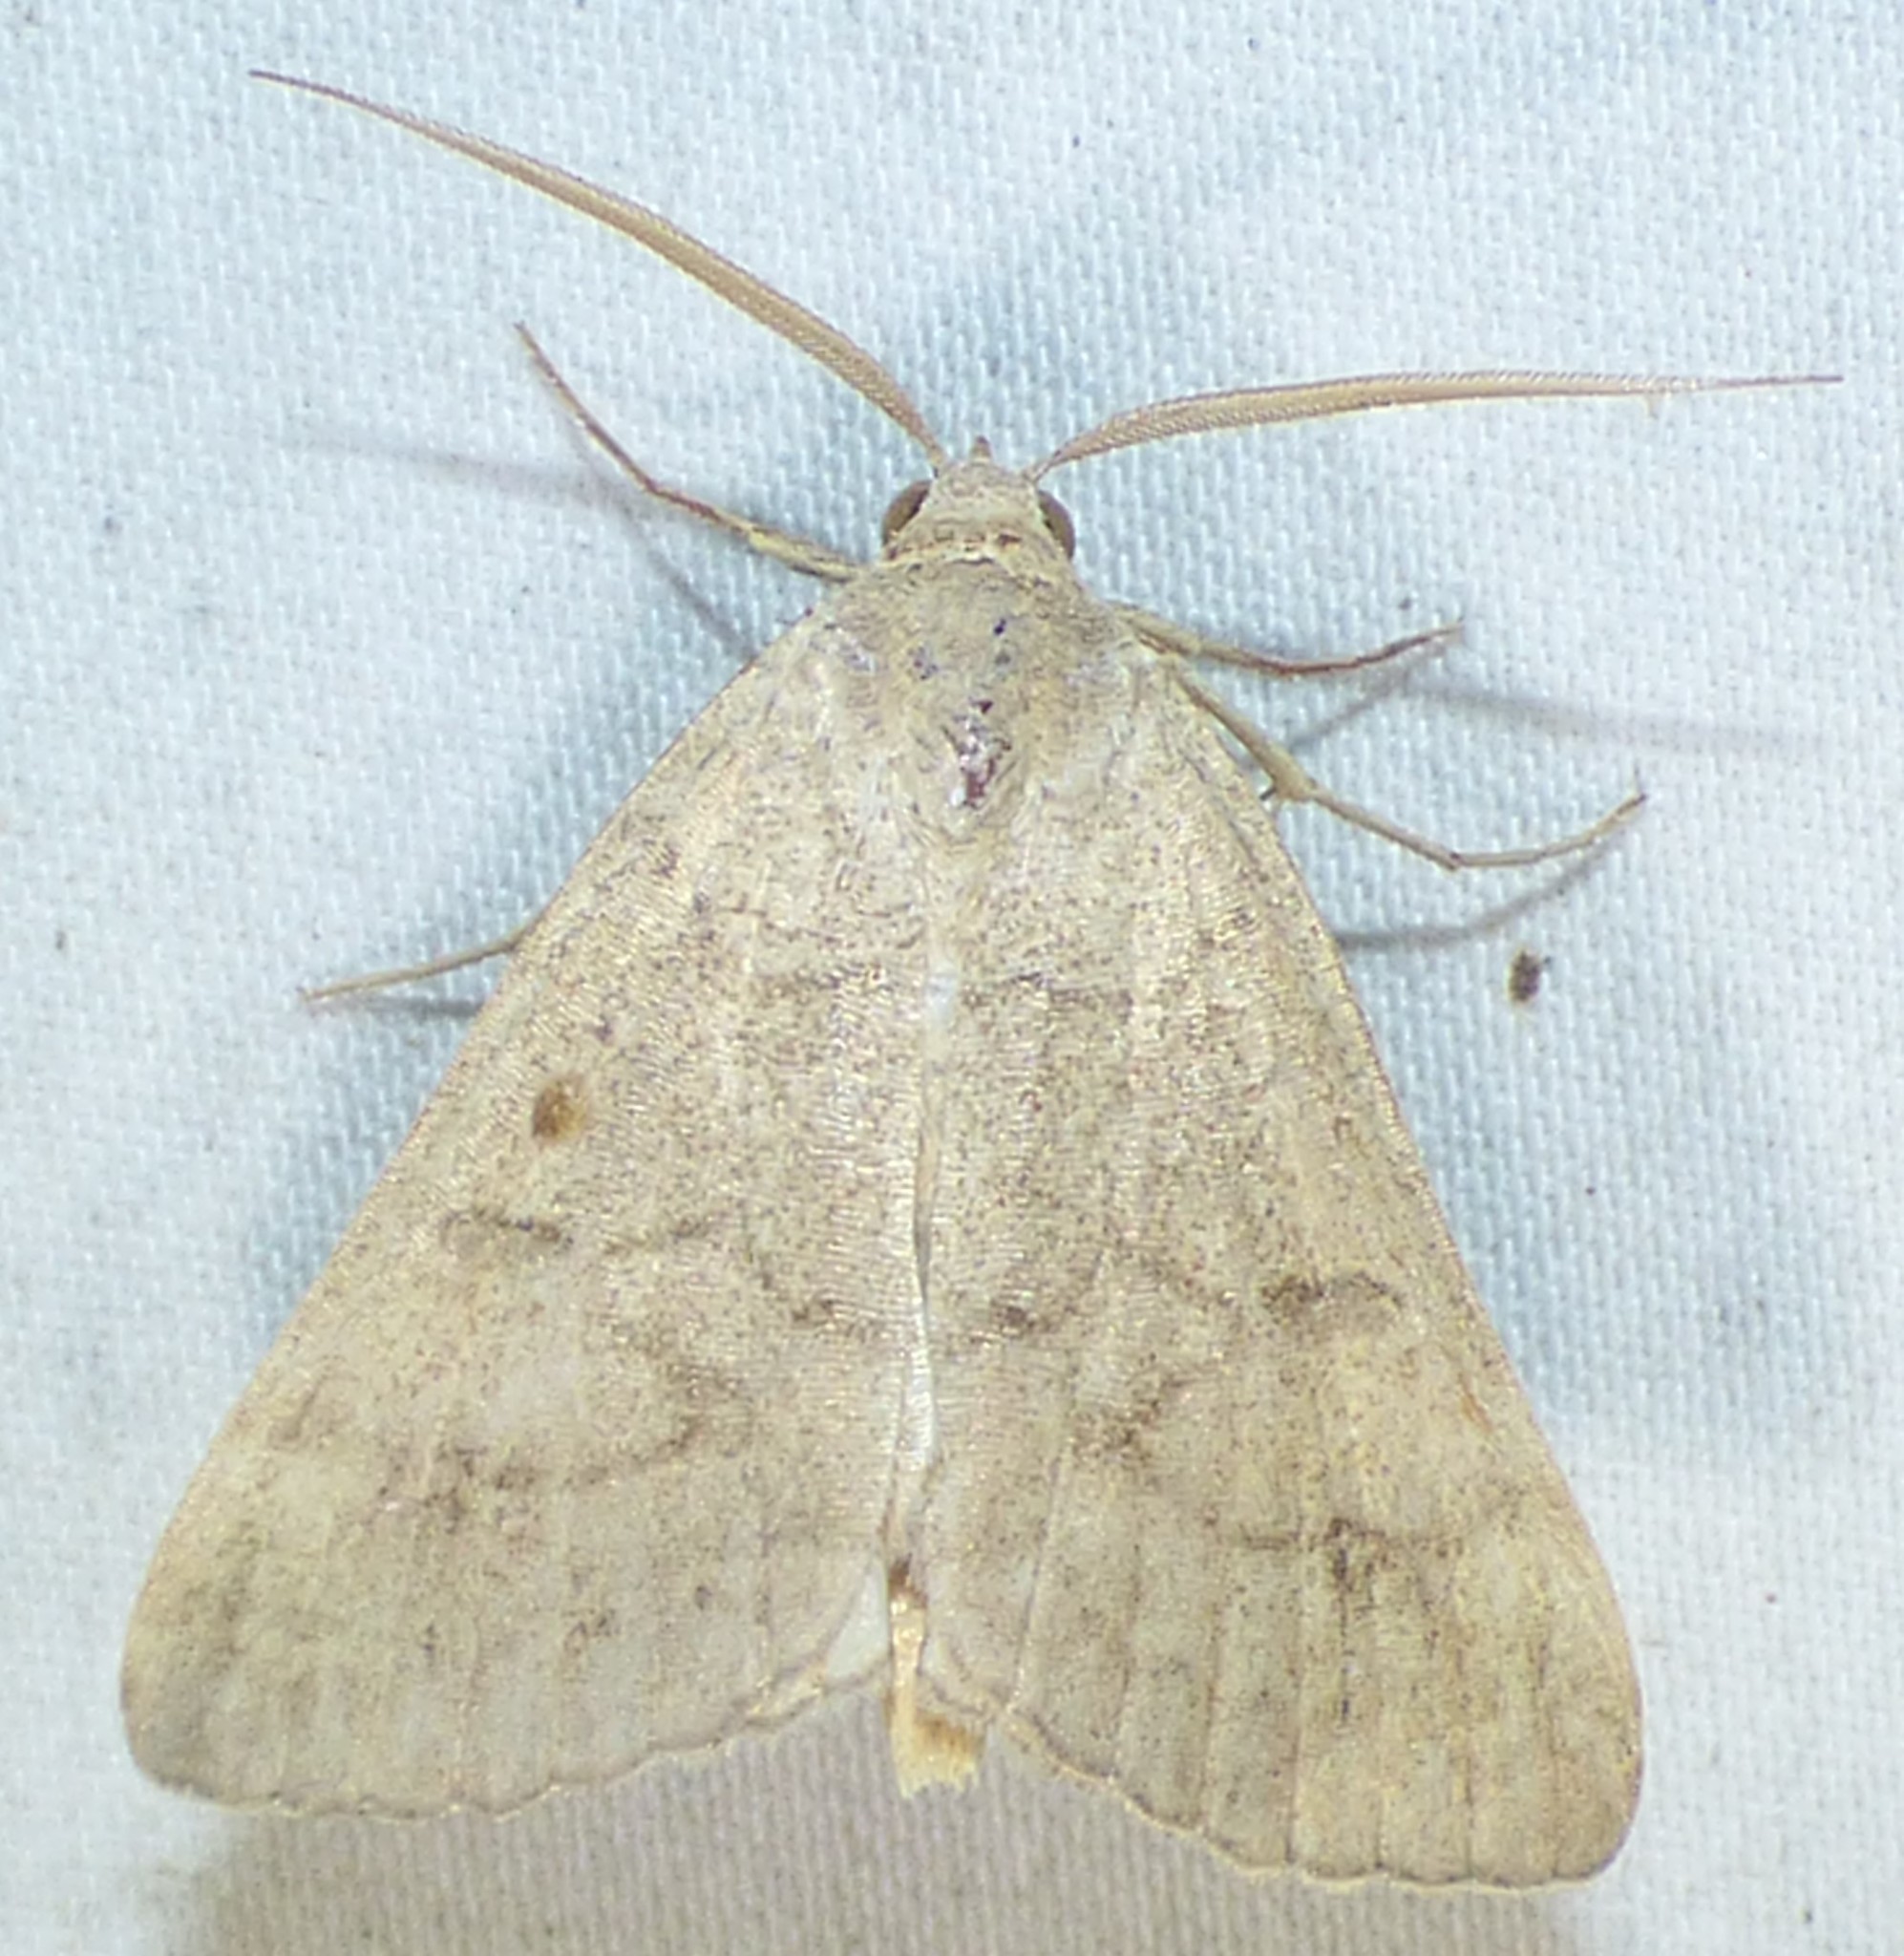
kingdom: Animalia
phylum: Arthropoda
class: Insecta
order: Lepidoptera
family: Erebidae
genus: Caenurgia
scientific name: Caenurgia chloropha
